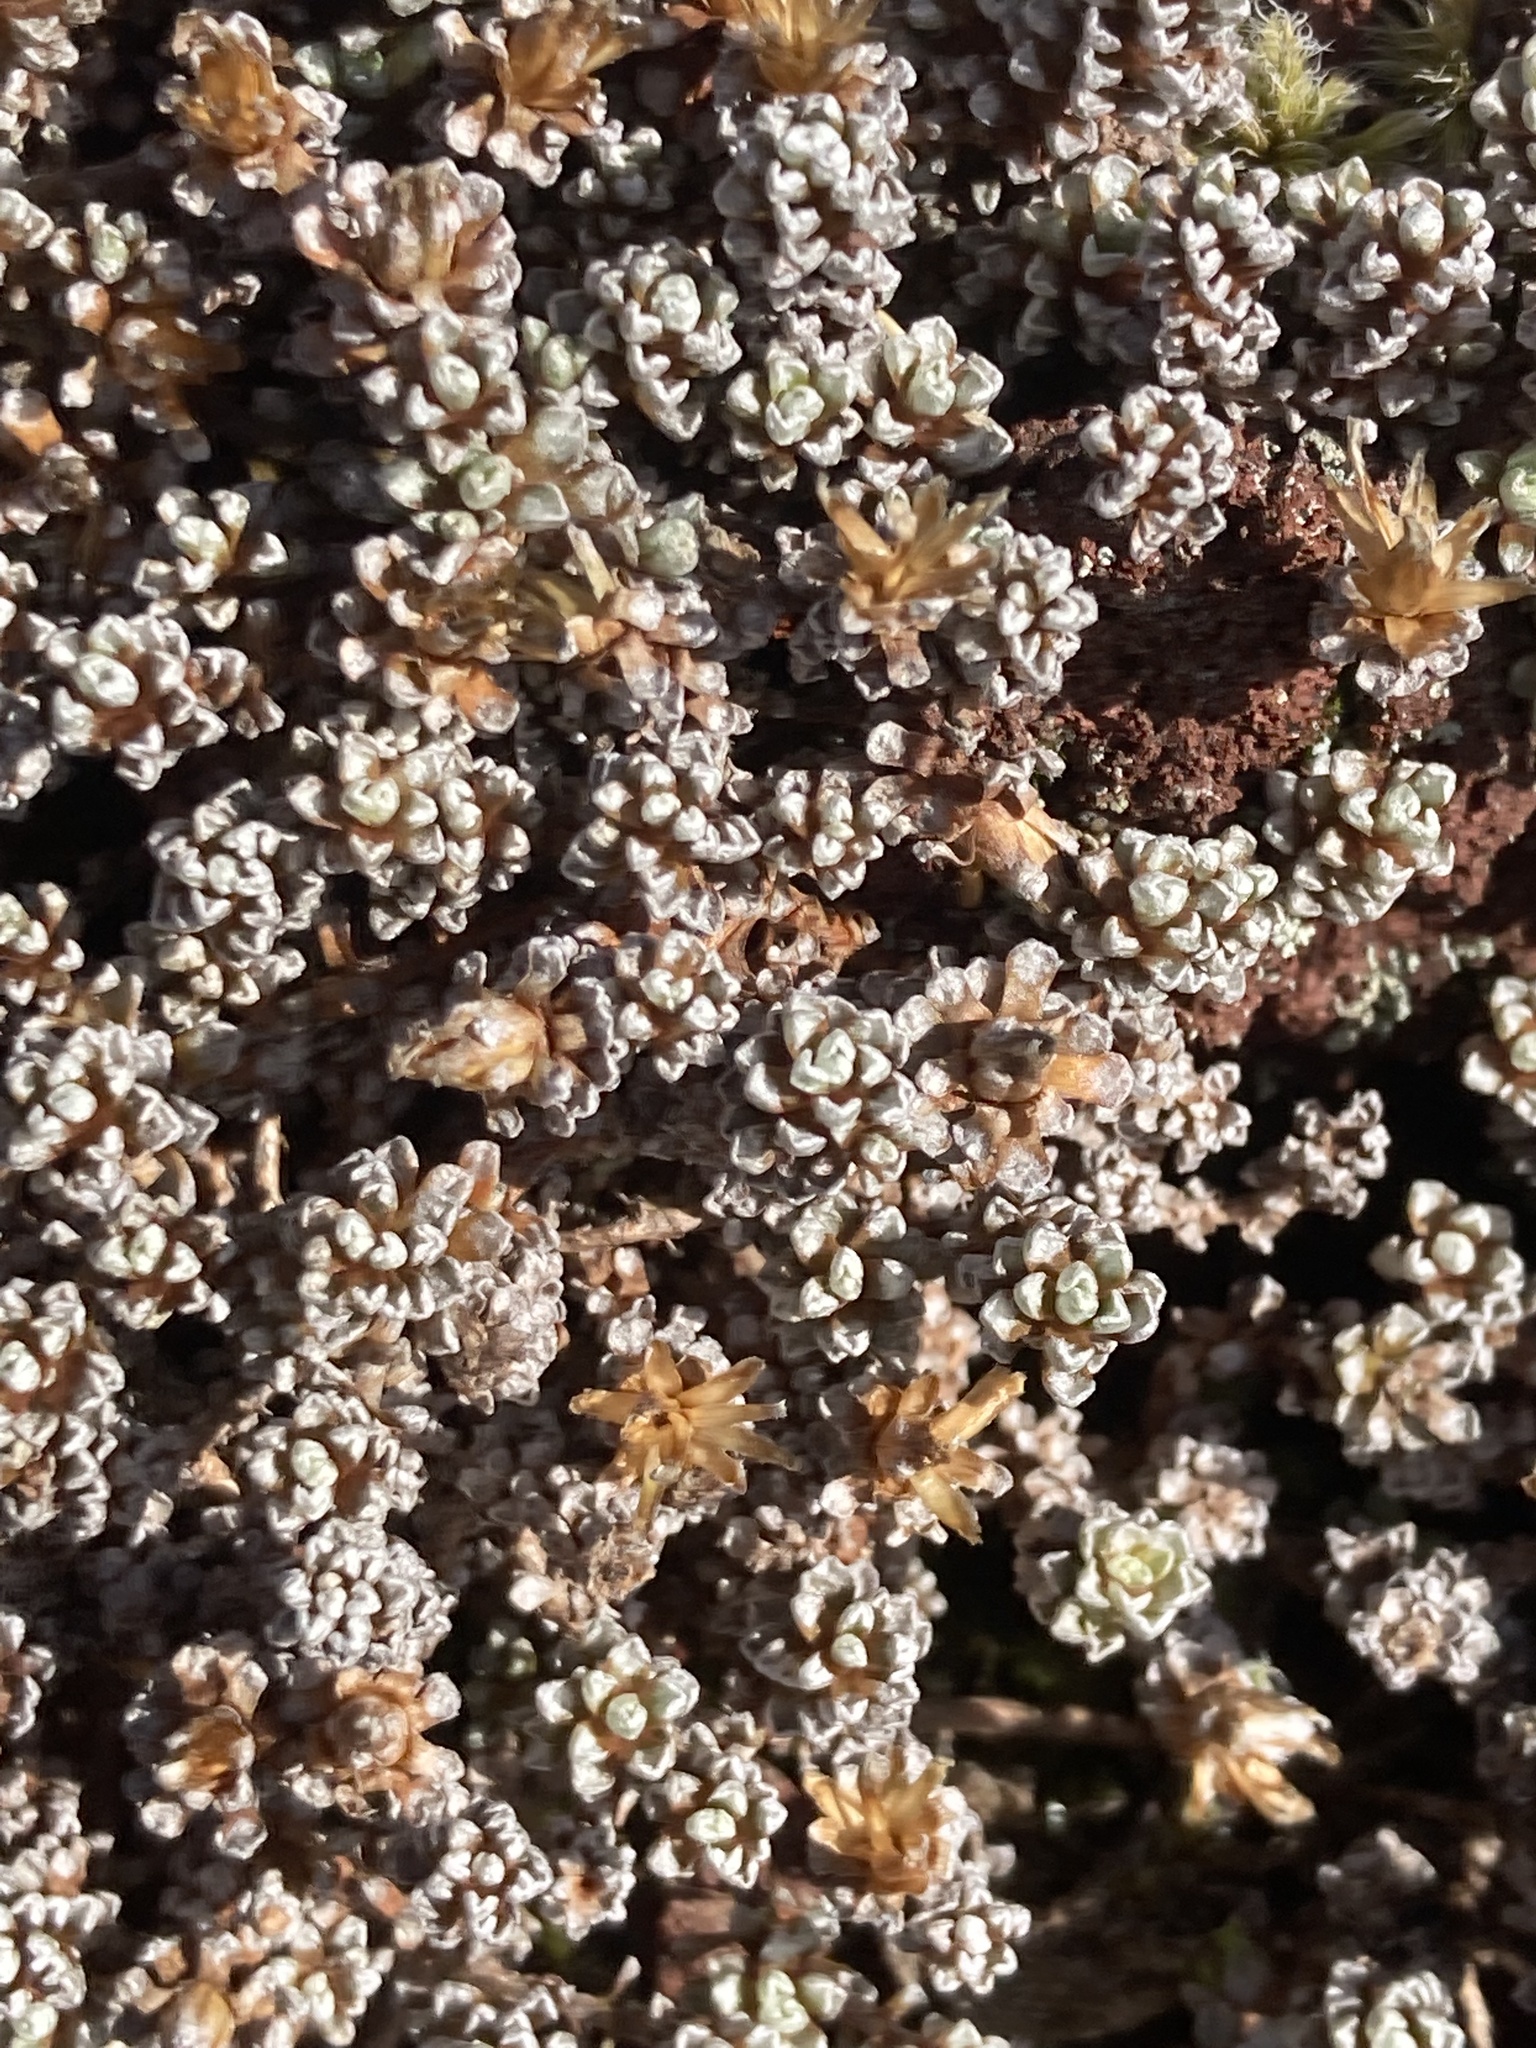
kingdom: Plantae
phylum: Tracheophyta
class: Magnoliopsida
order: Asterales
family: Asteraceae
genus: Raoulia
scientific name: Raoulia albosericea
